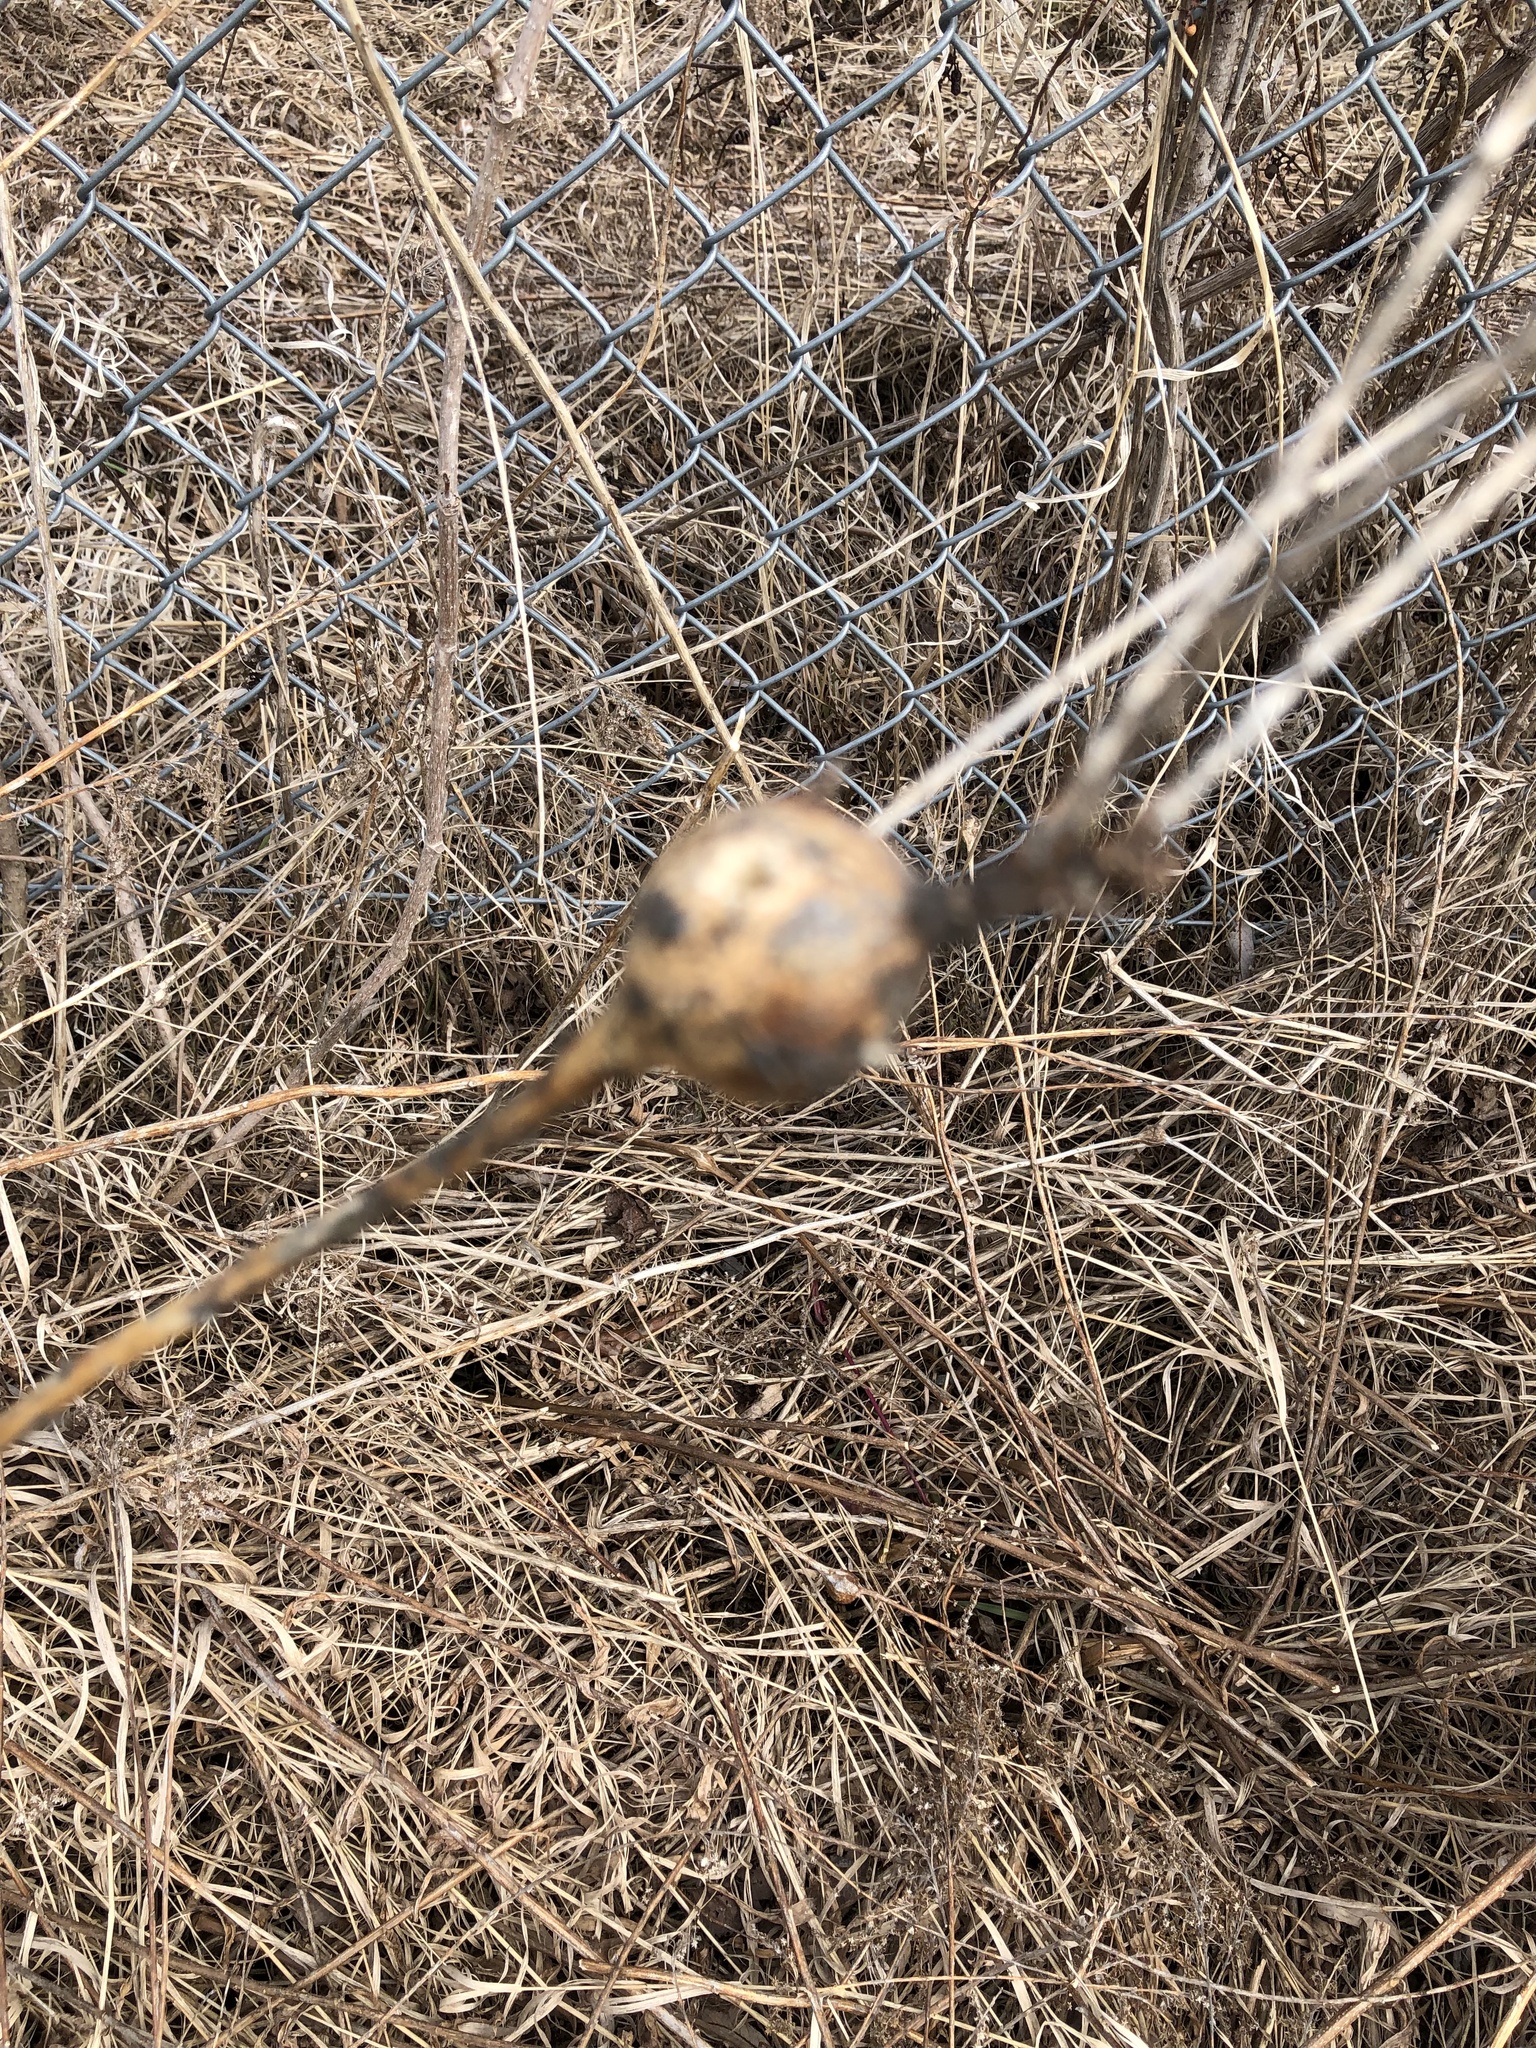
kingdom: Animalia
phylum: Arthropoda
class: Insecta
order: Diptera
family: Tephritidae
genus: Eurosta
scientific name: Eurosta solidaginis
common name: Goldenrod gall fly
